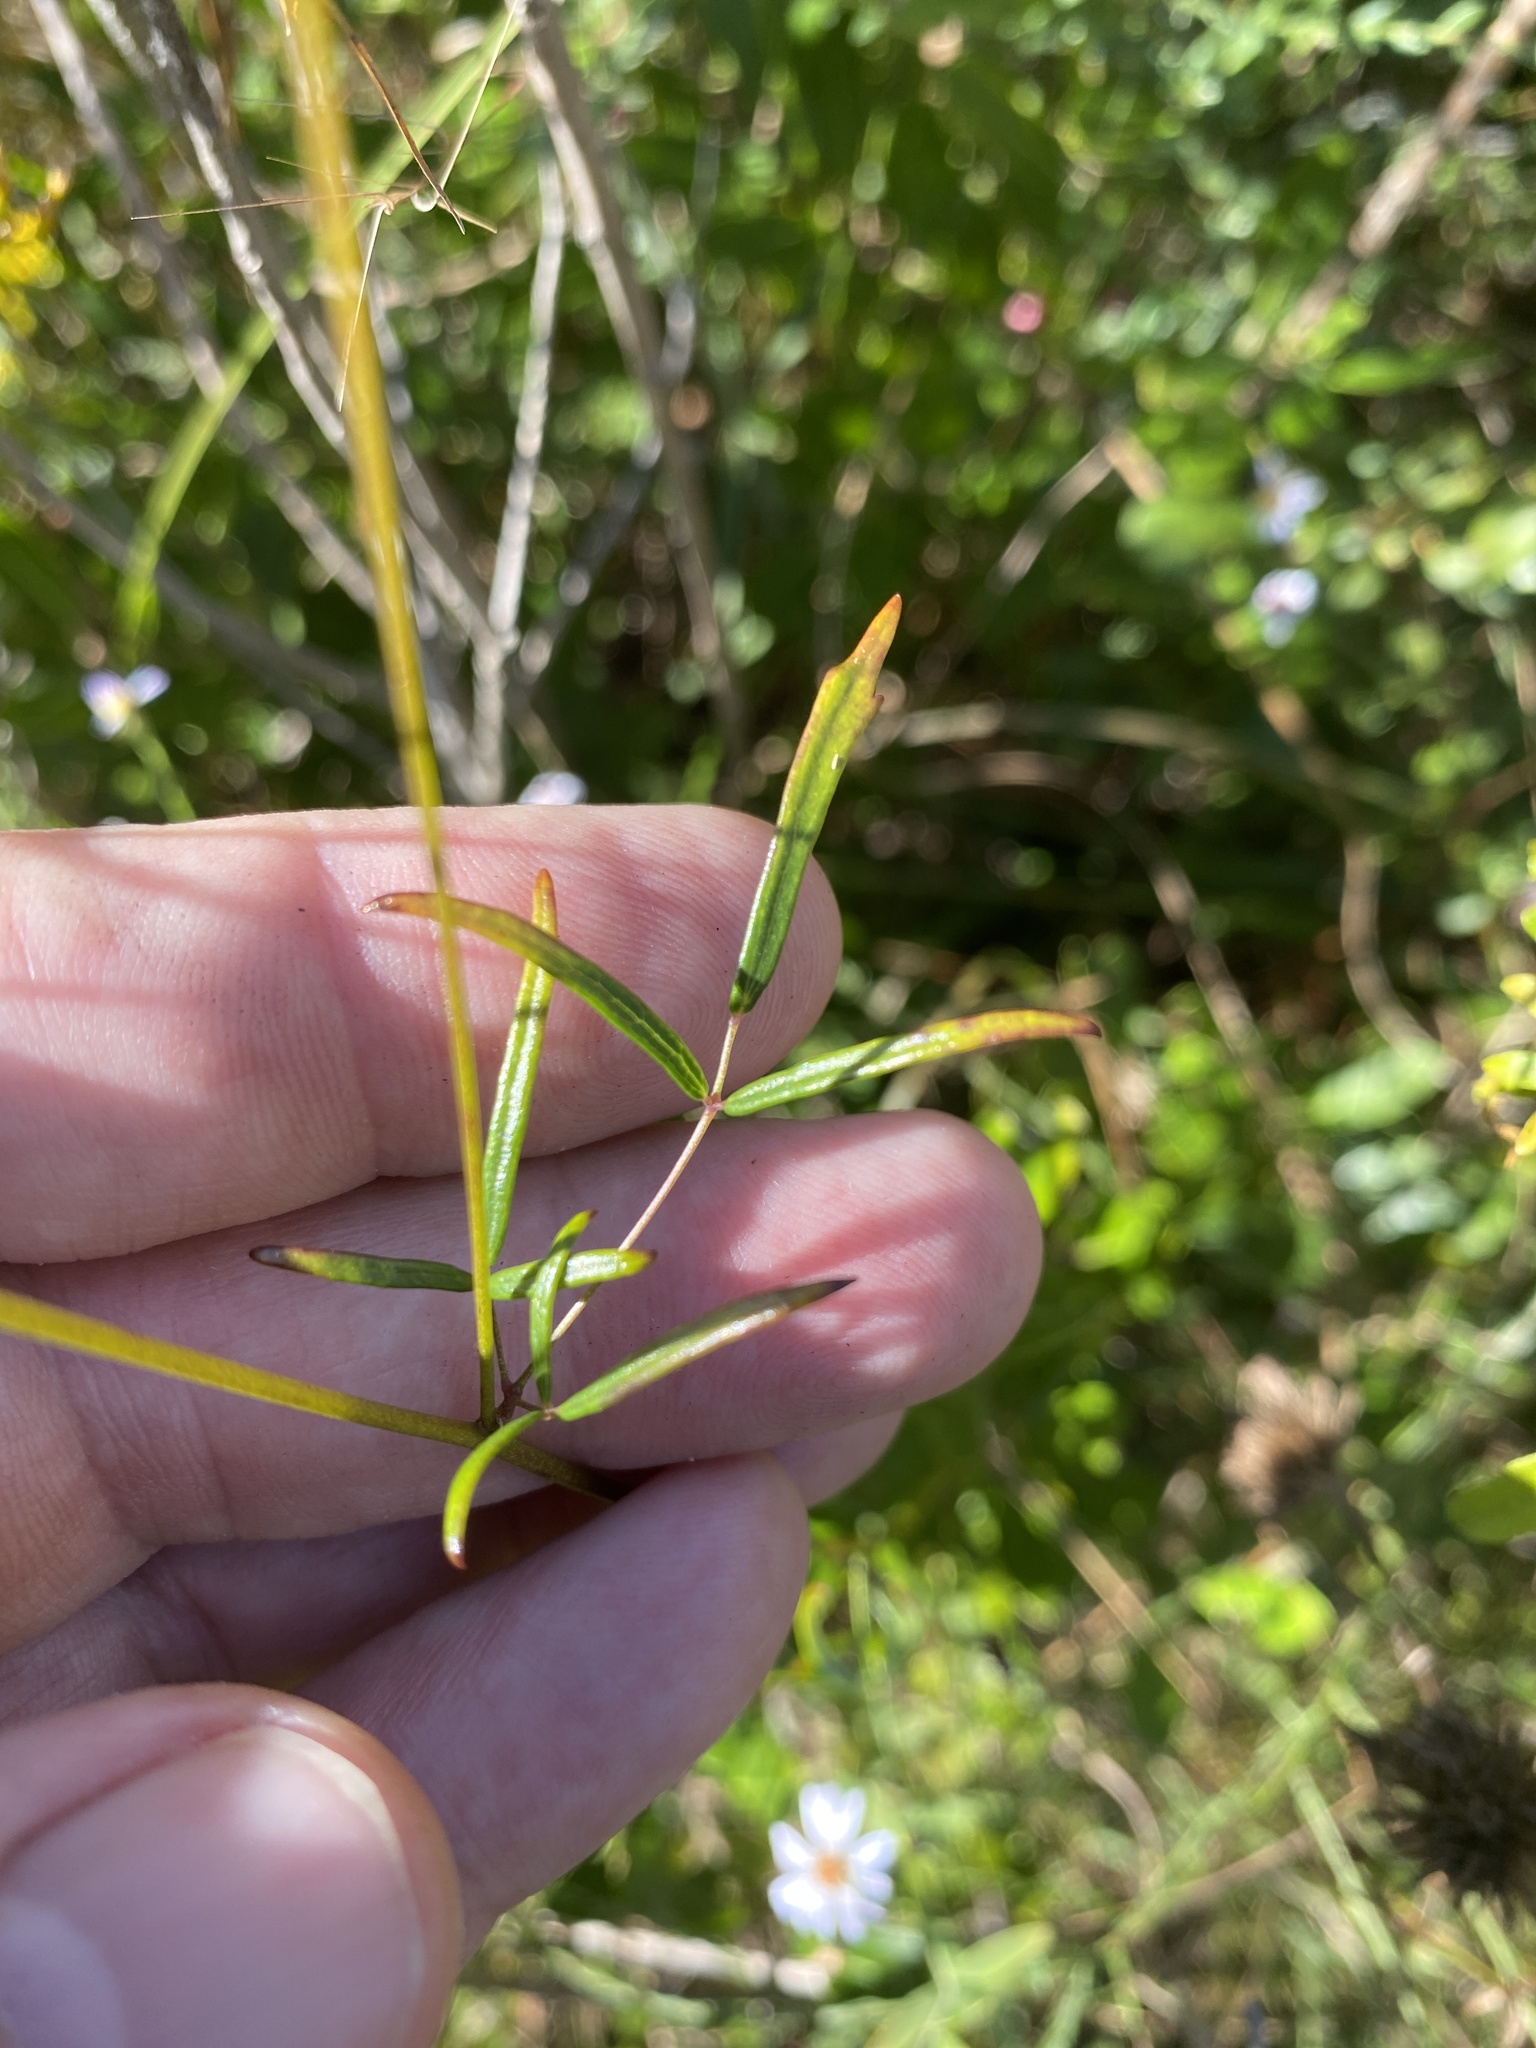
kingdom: Plantae
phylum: Tracheophyta
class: Magnoliopsida
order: Ranunculales
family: Ranunculaceae
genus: Thalictrum
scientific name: Thalictrum cooleyi
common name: Cooley's meadow-rue
